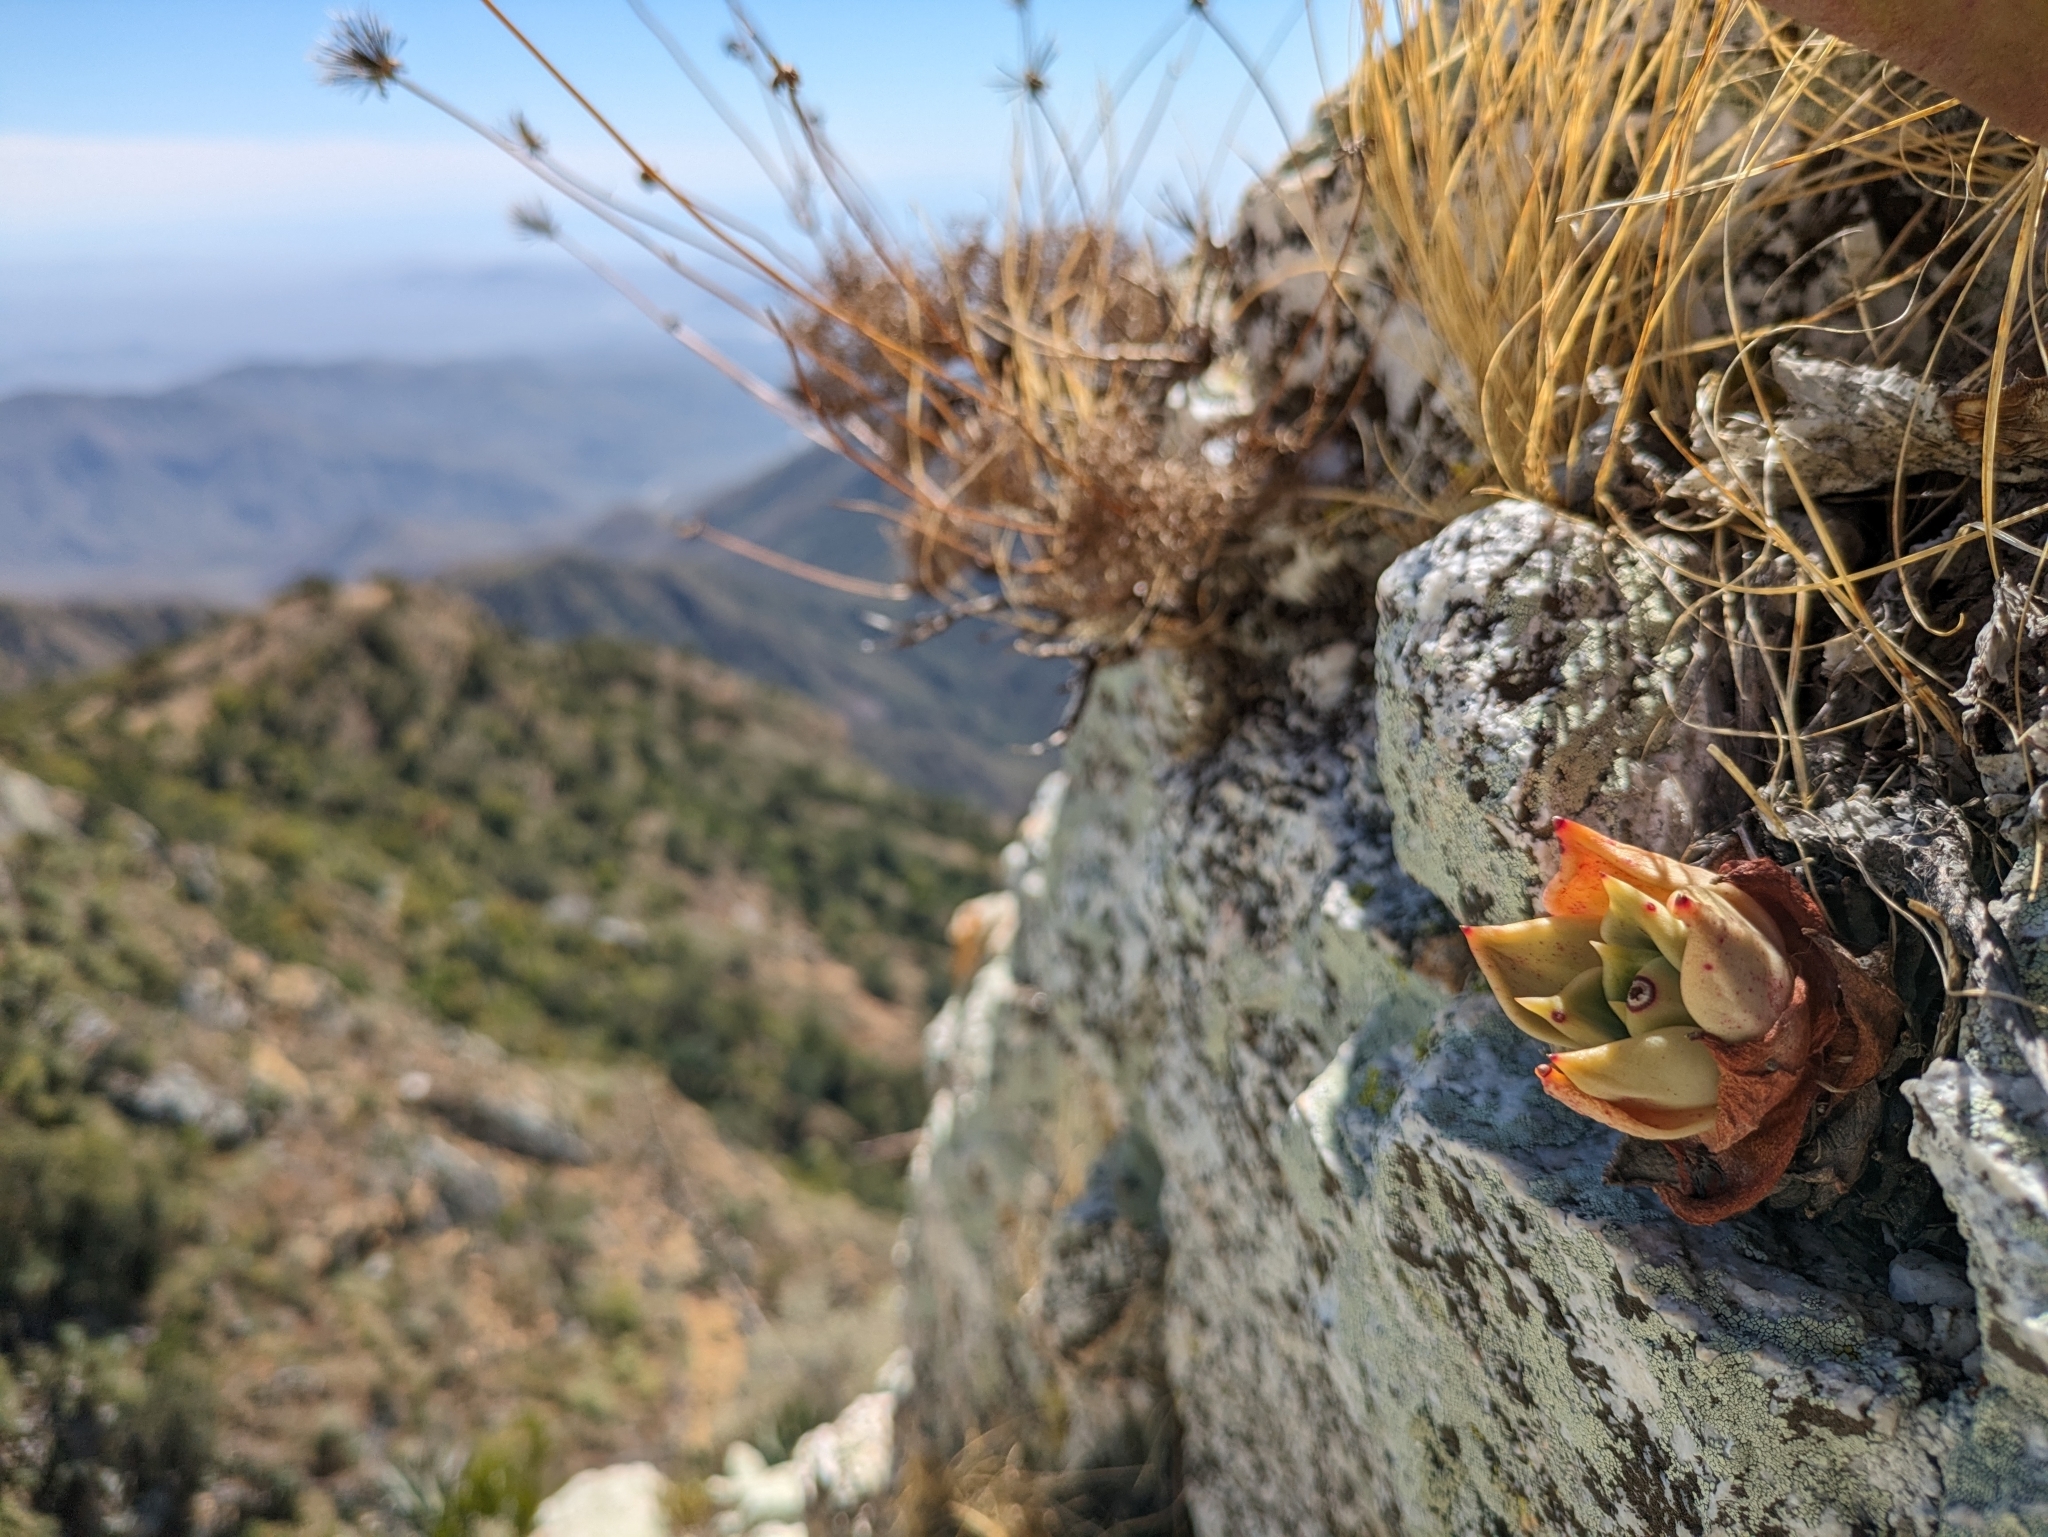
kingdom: Plantae
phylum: Tracheophyta
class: Magnoliopsida
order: Saxifragales
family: Crassulaceae
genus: Dudleya
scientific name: Dudleya rigida
